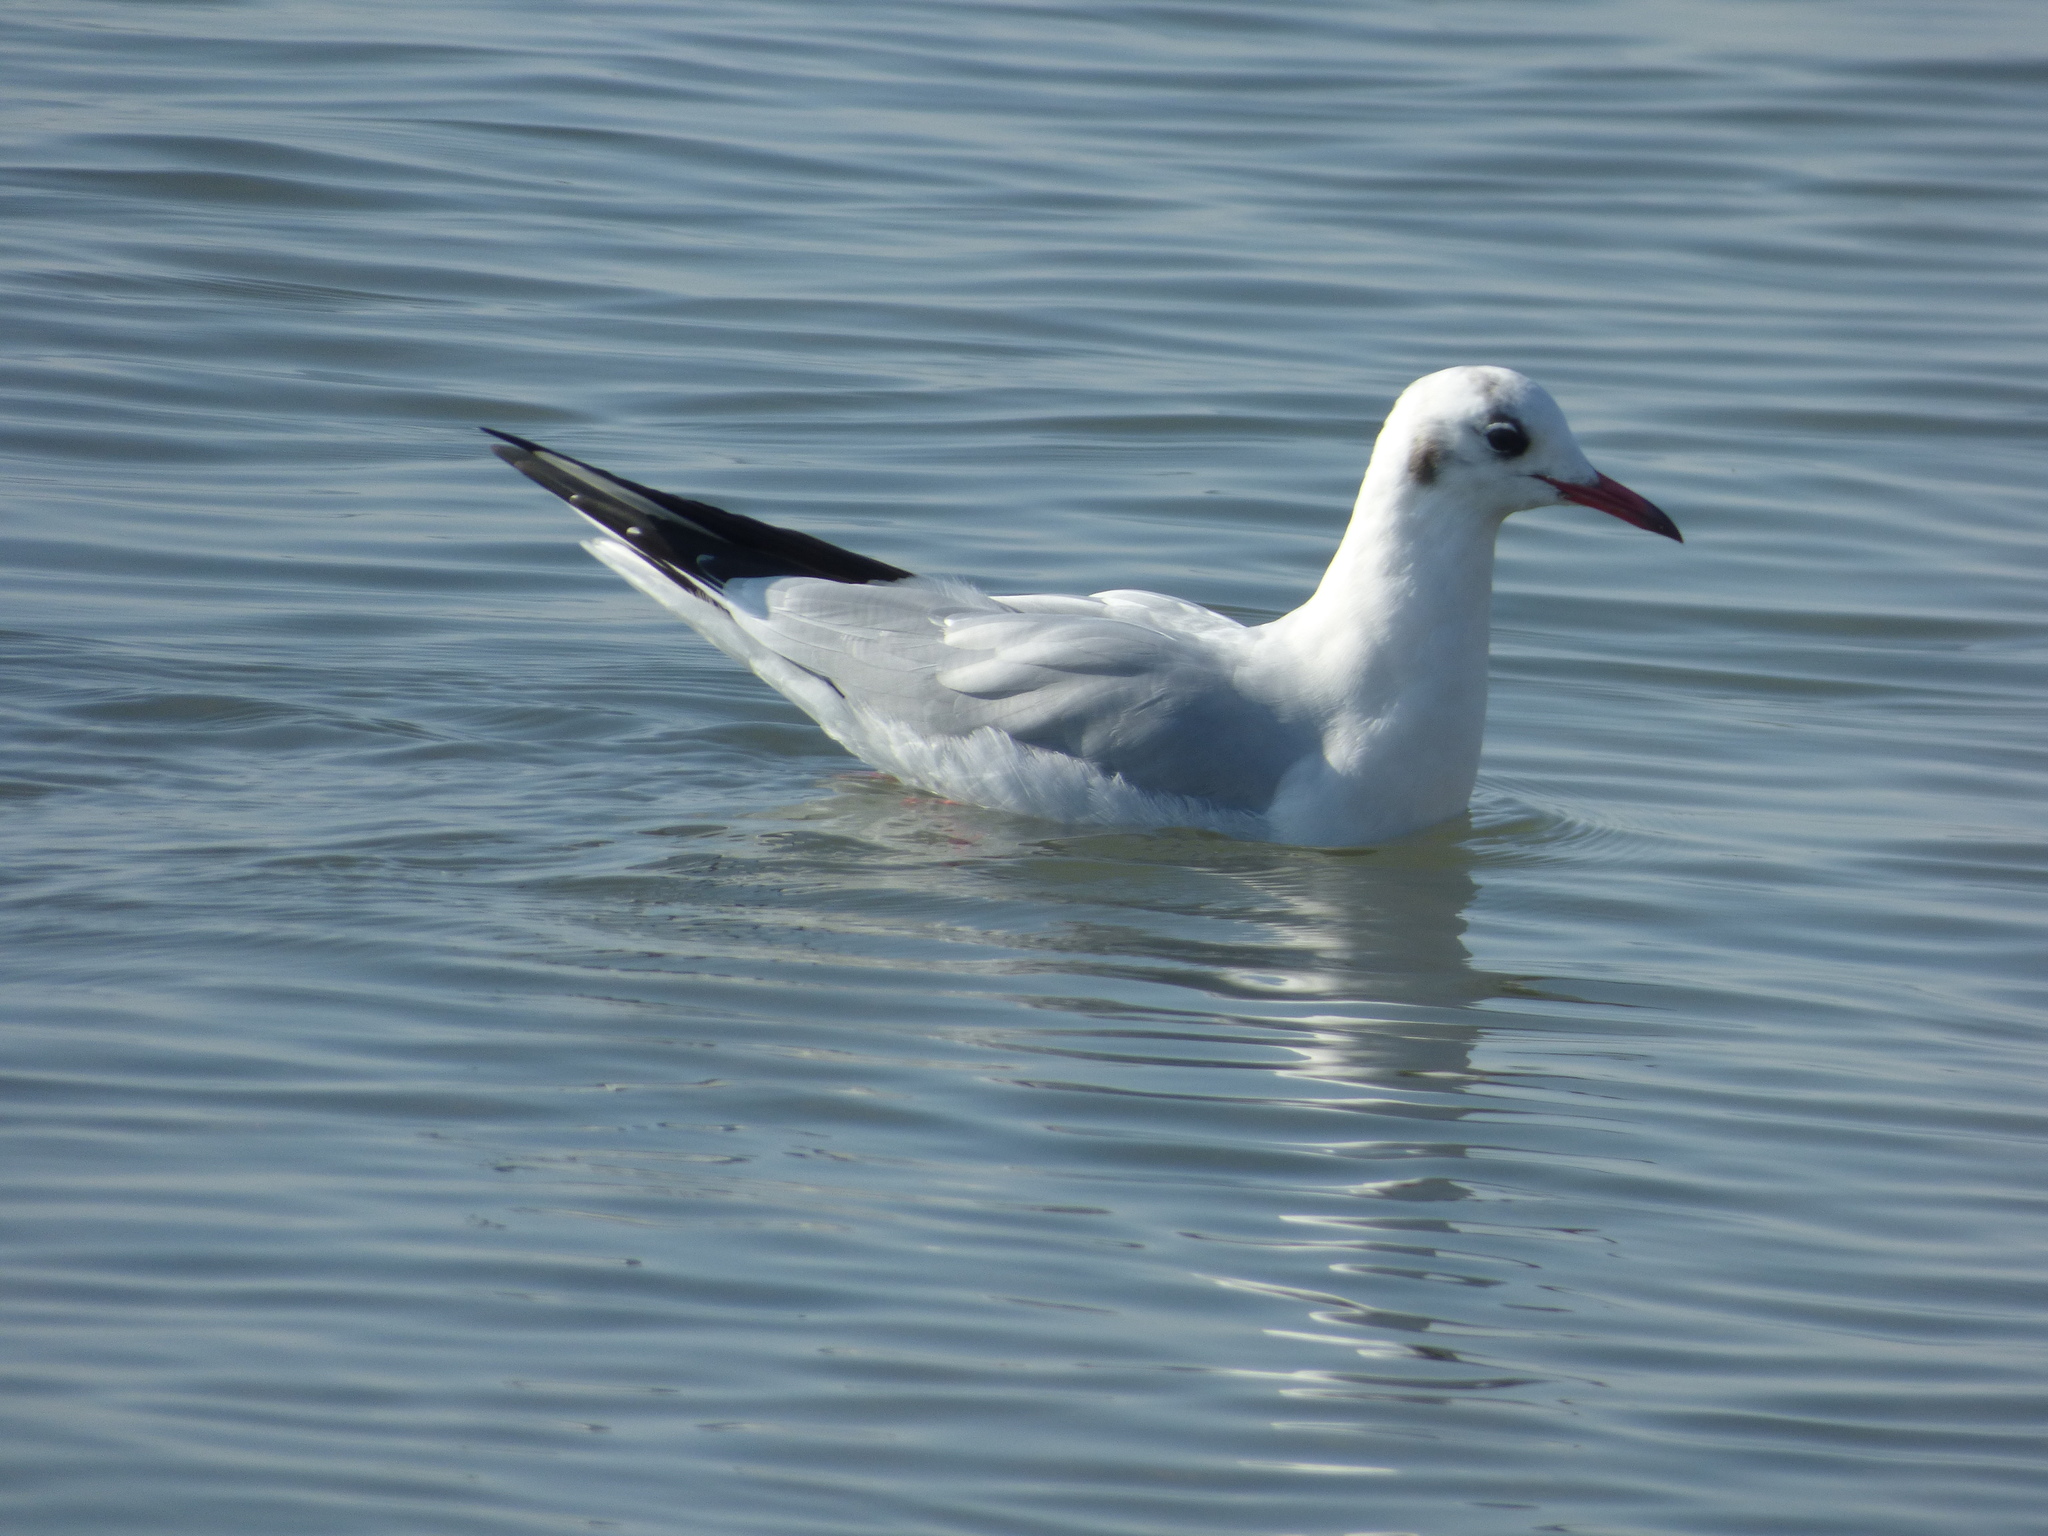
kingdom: Animalia
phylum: Chordata
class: Aves
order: Charadriiformes
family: Laridae
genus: Chroicocephalus
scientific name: Chroicocephalus ridibundus
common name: Black-headed gull
